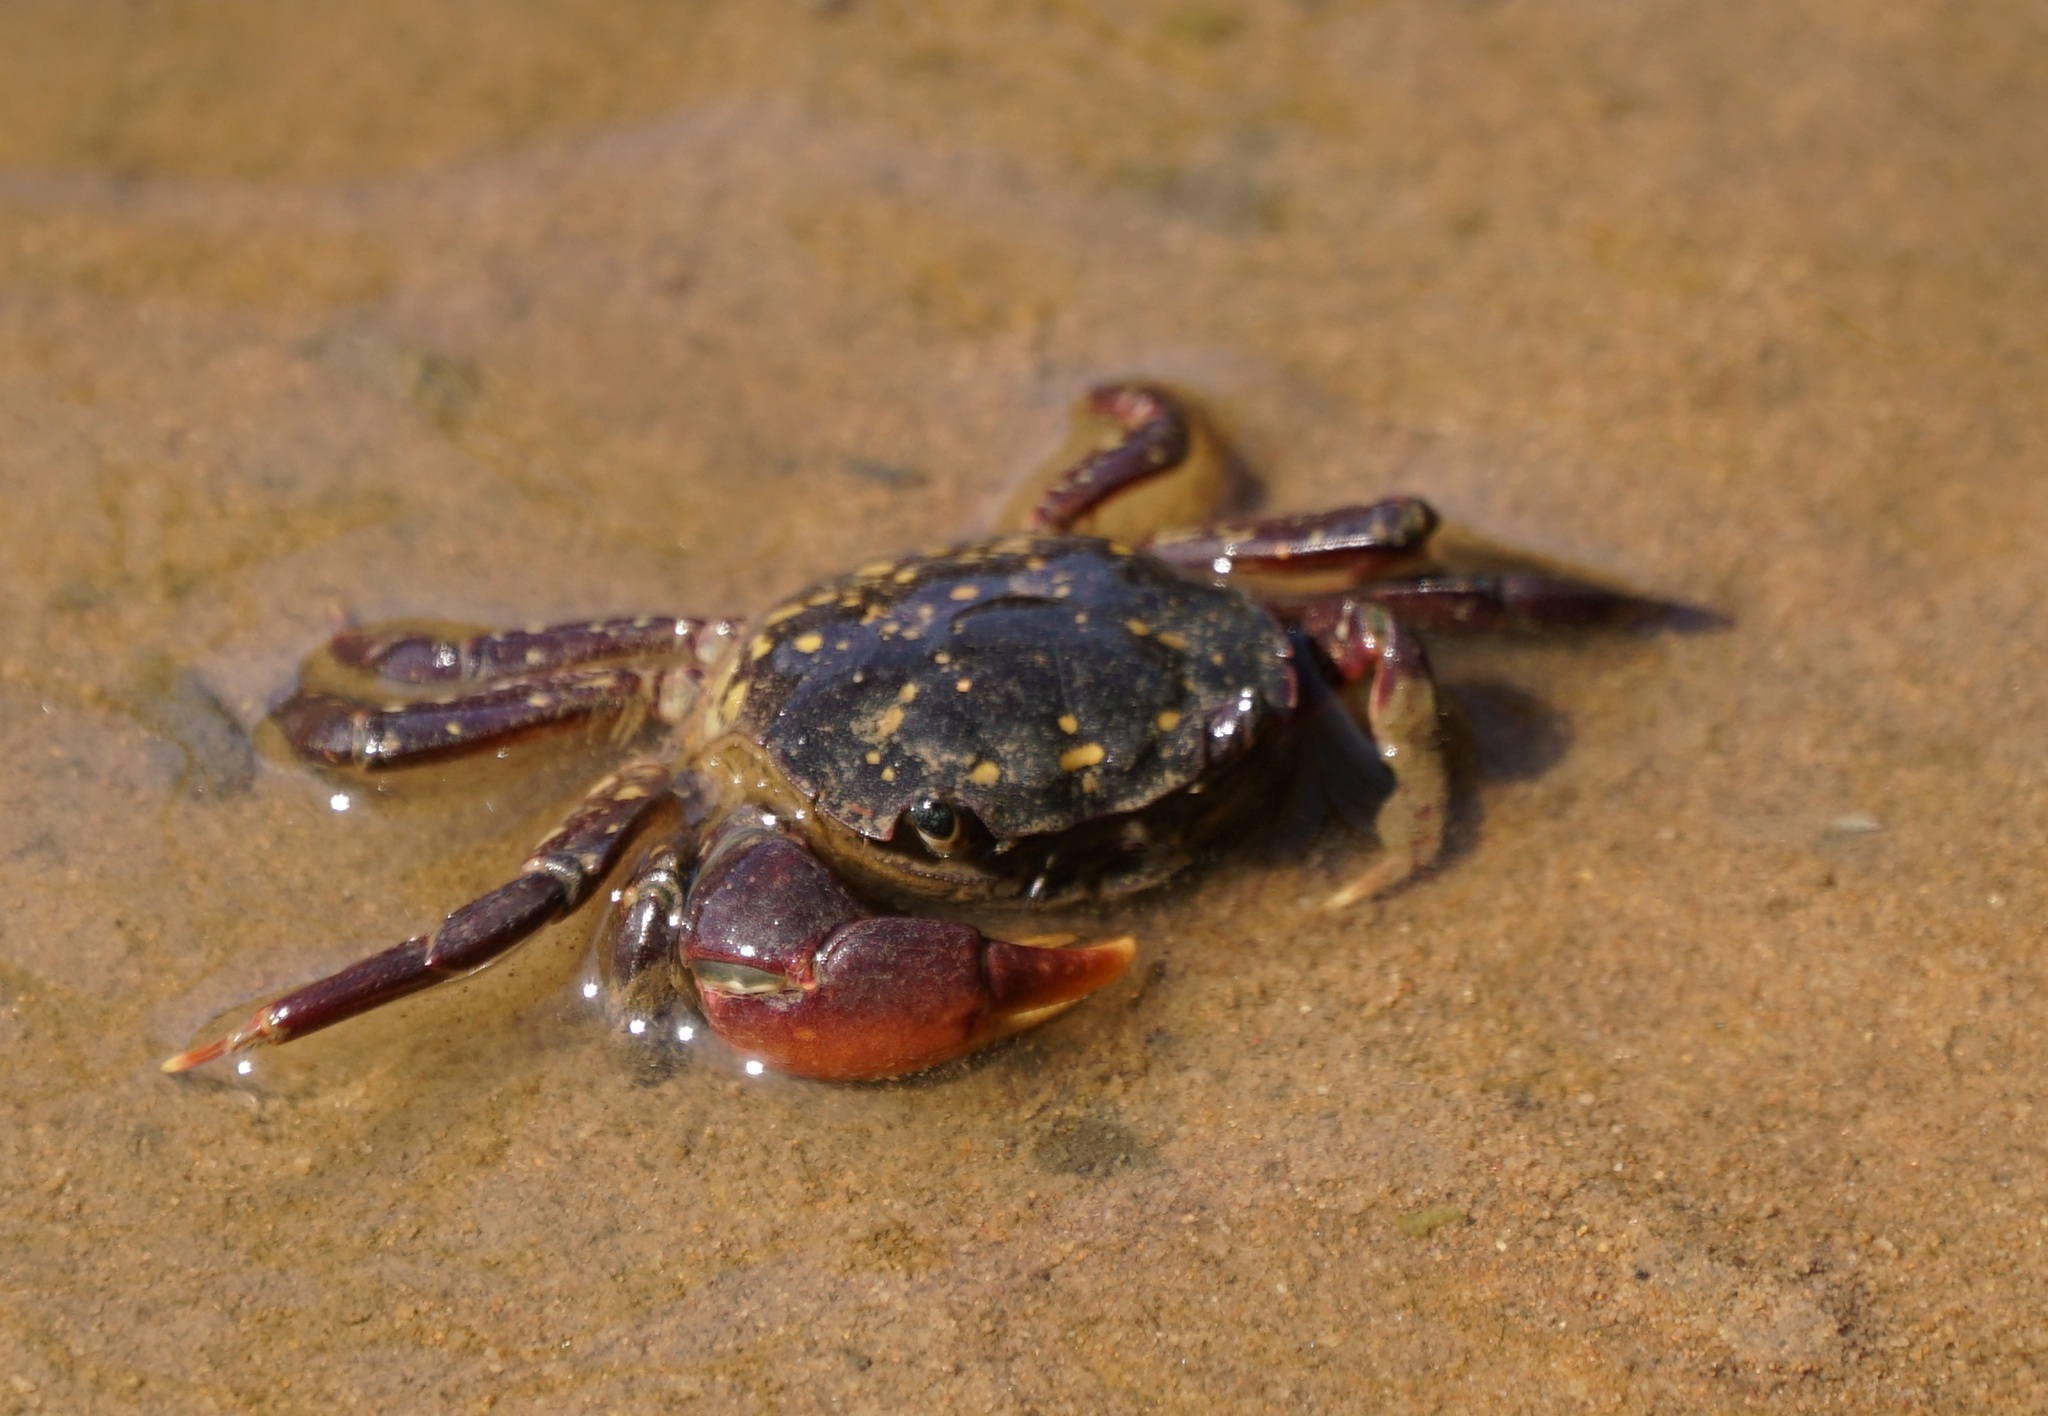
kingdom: Animalia
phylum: Arthropoda
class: Malacostraca
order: Decapoda
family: Varunidae
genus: Paragrapsus
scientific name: Paragrapsus laevis
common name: Smooth shore crab
